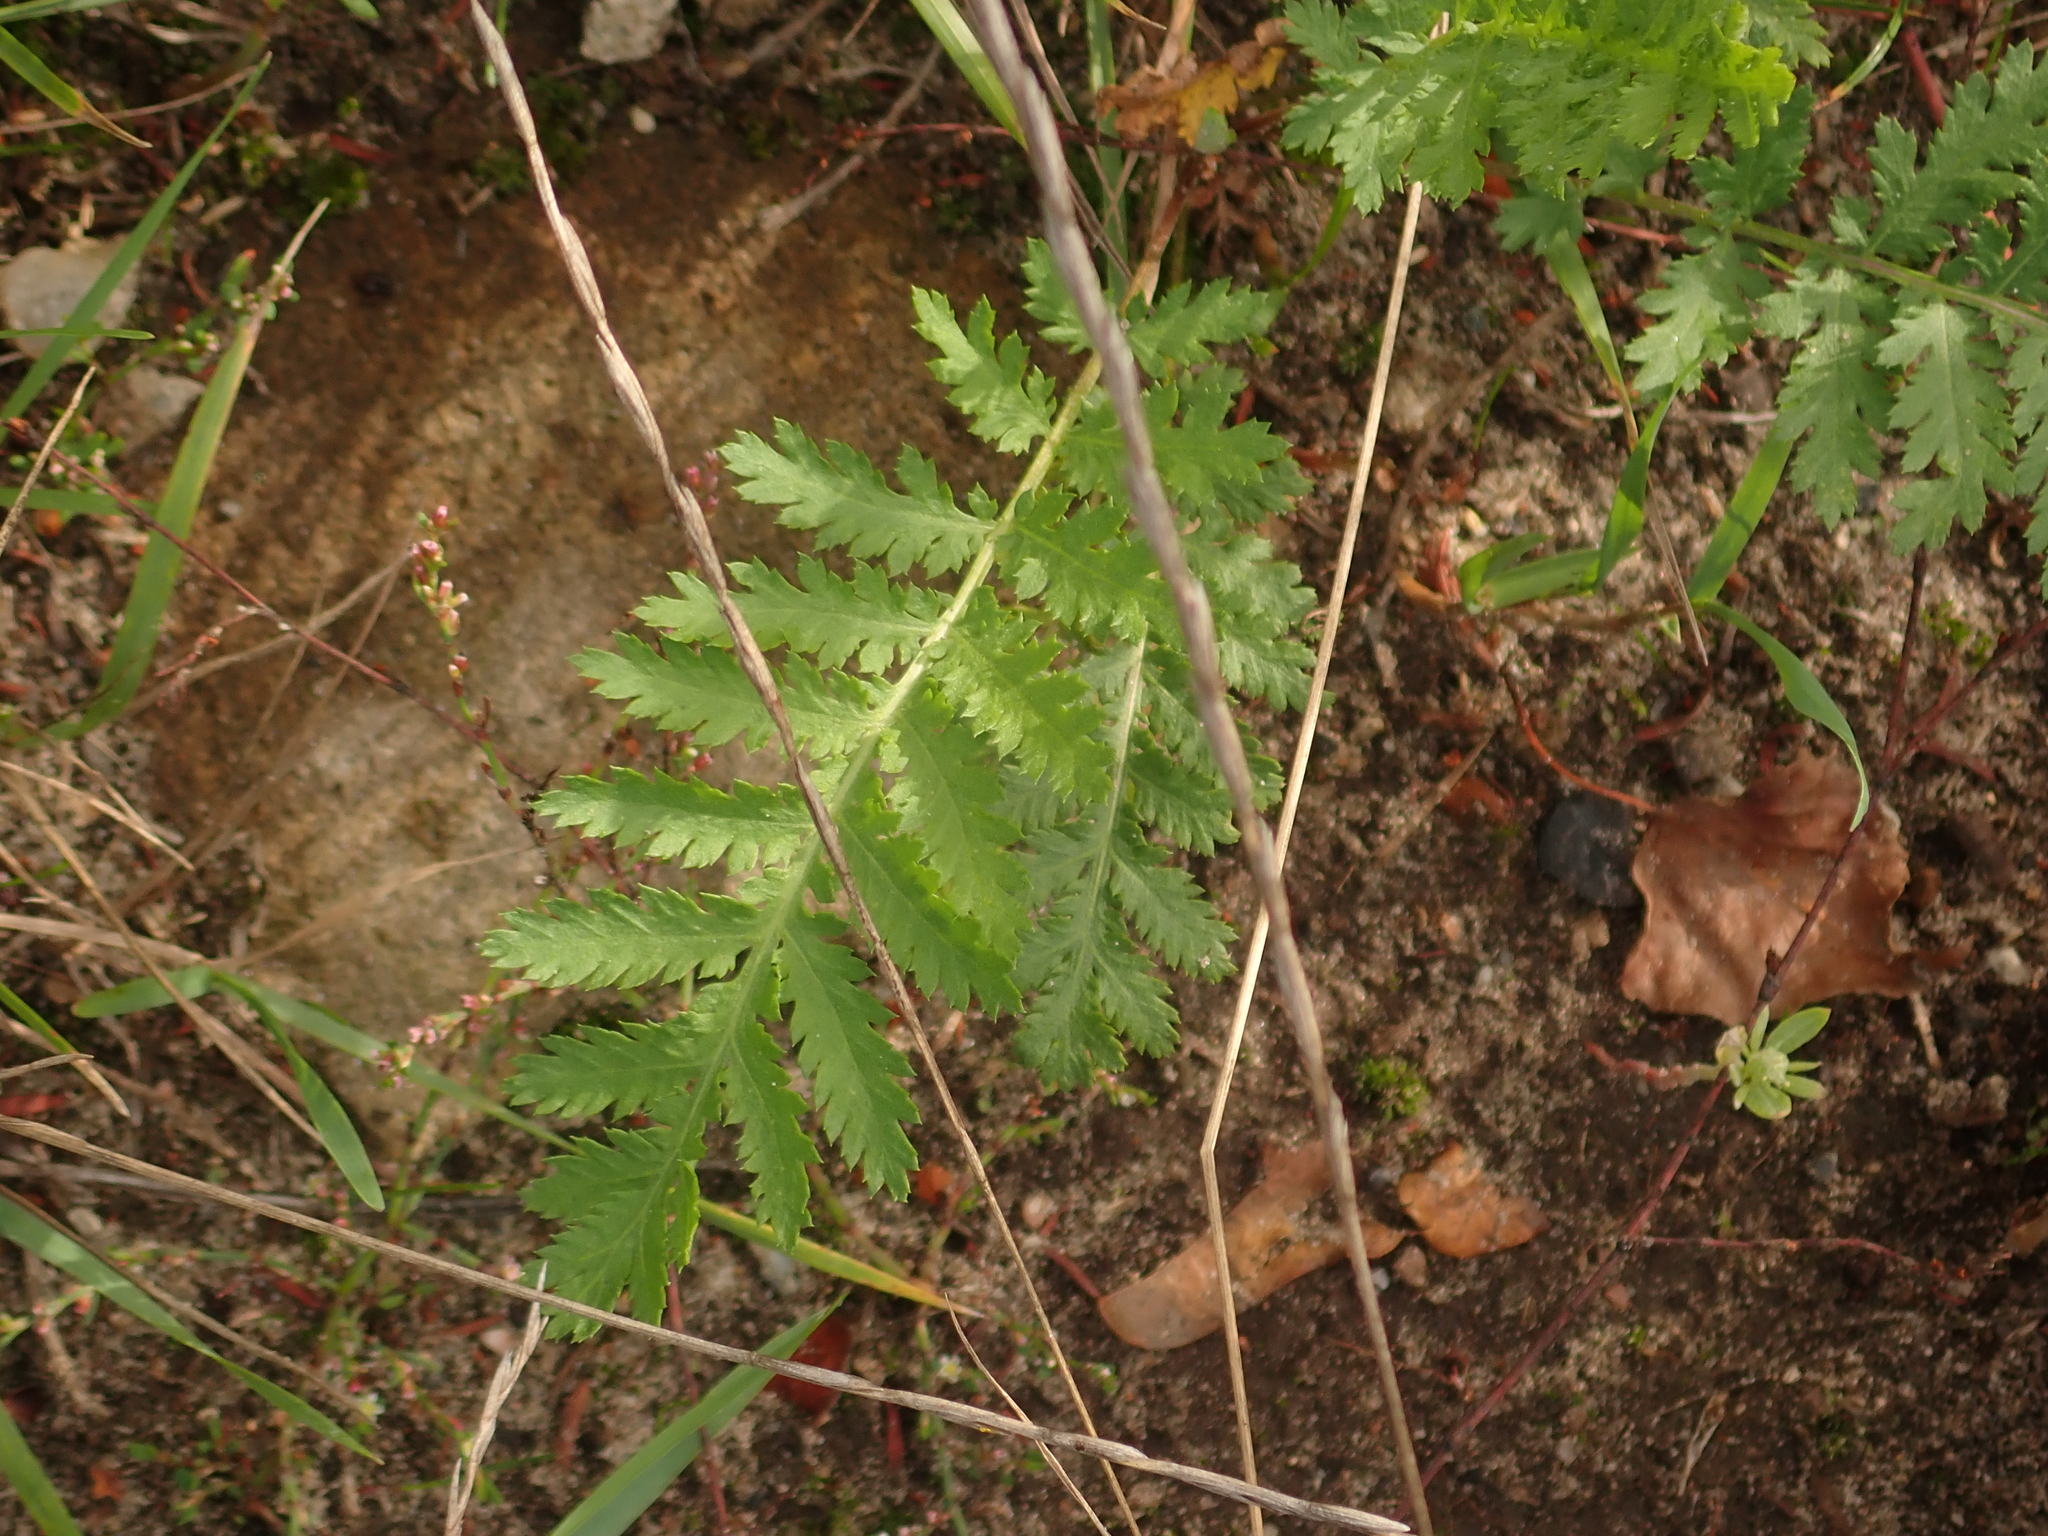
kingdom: Plantae
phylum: Tracheophyta
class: Magnoliopsida
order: Asterales
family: Asteraceae
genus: Tanacetum
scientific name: Tanacetum vulgare
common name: Common tansy
